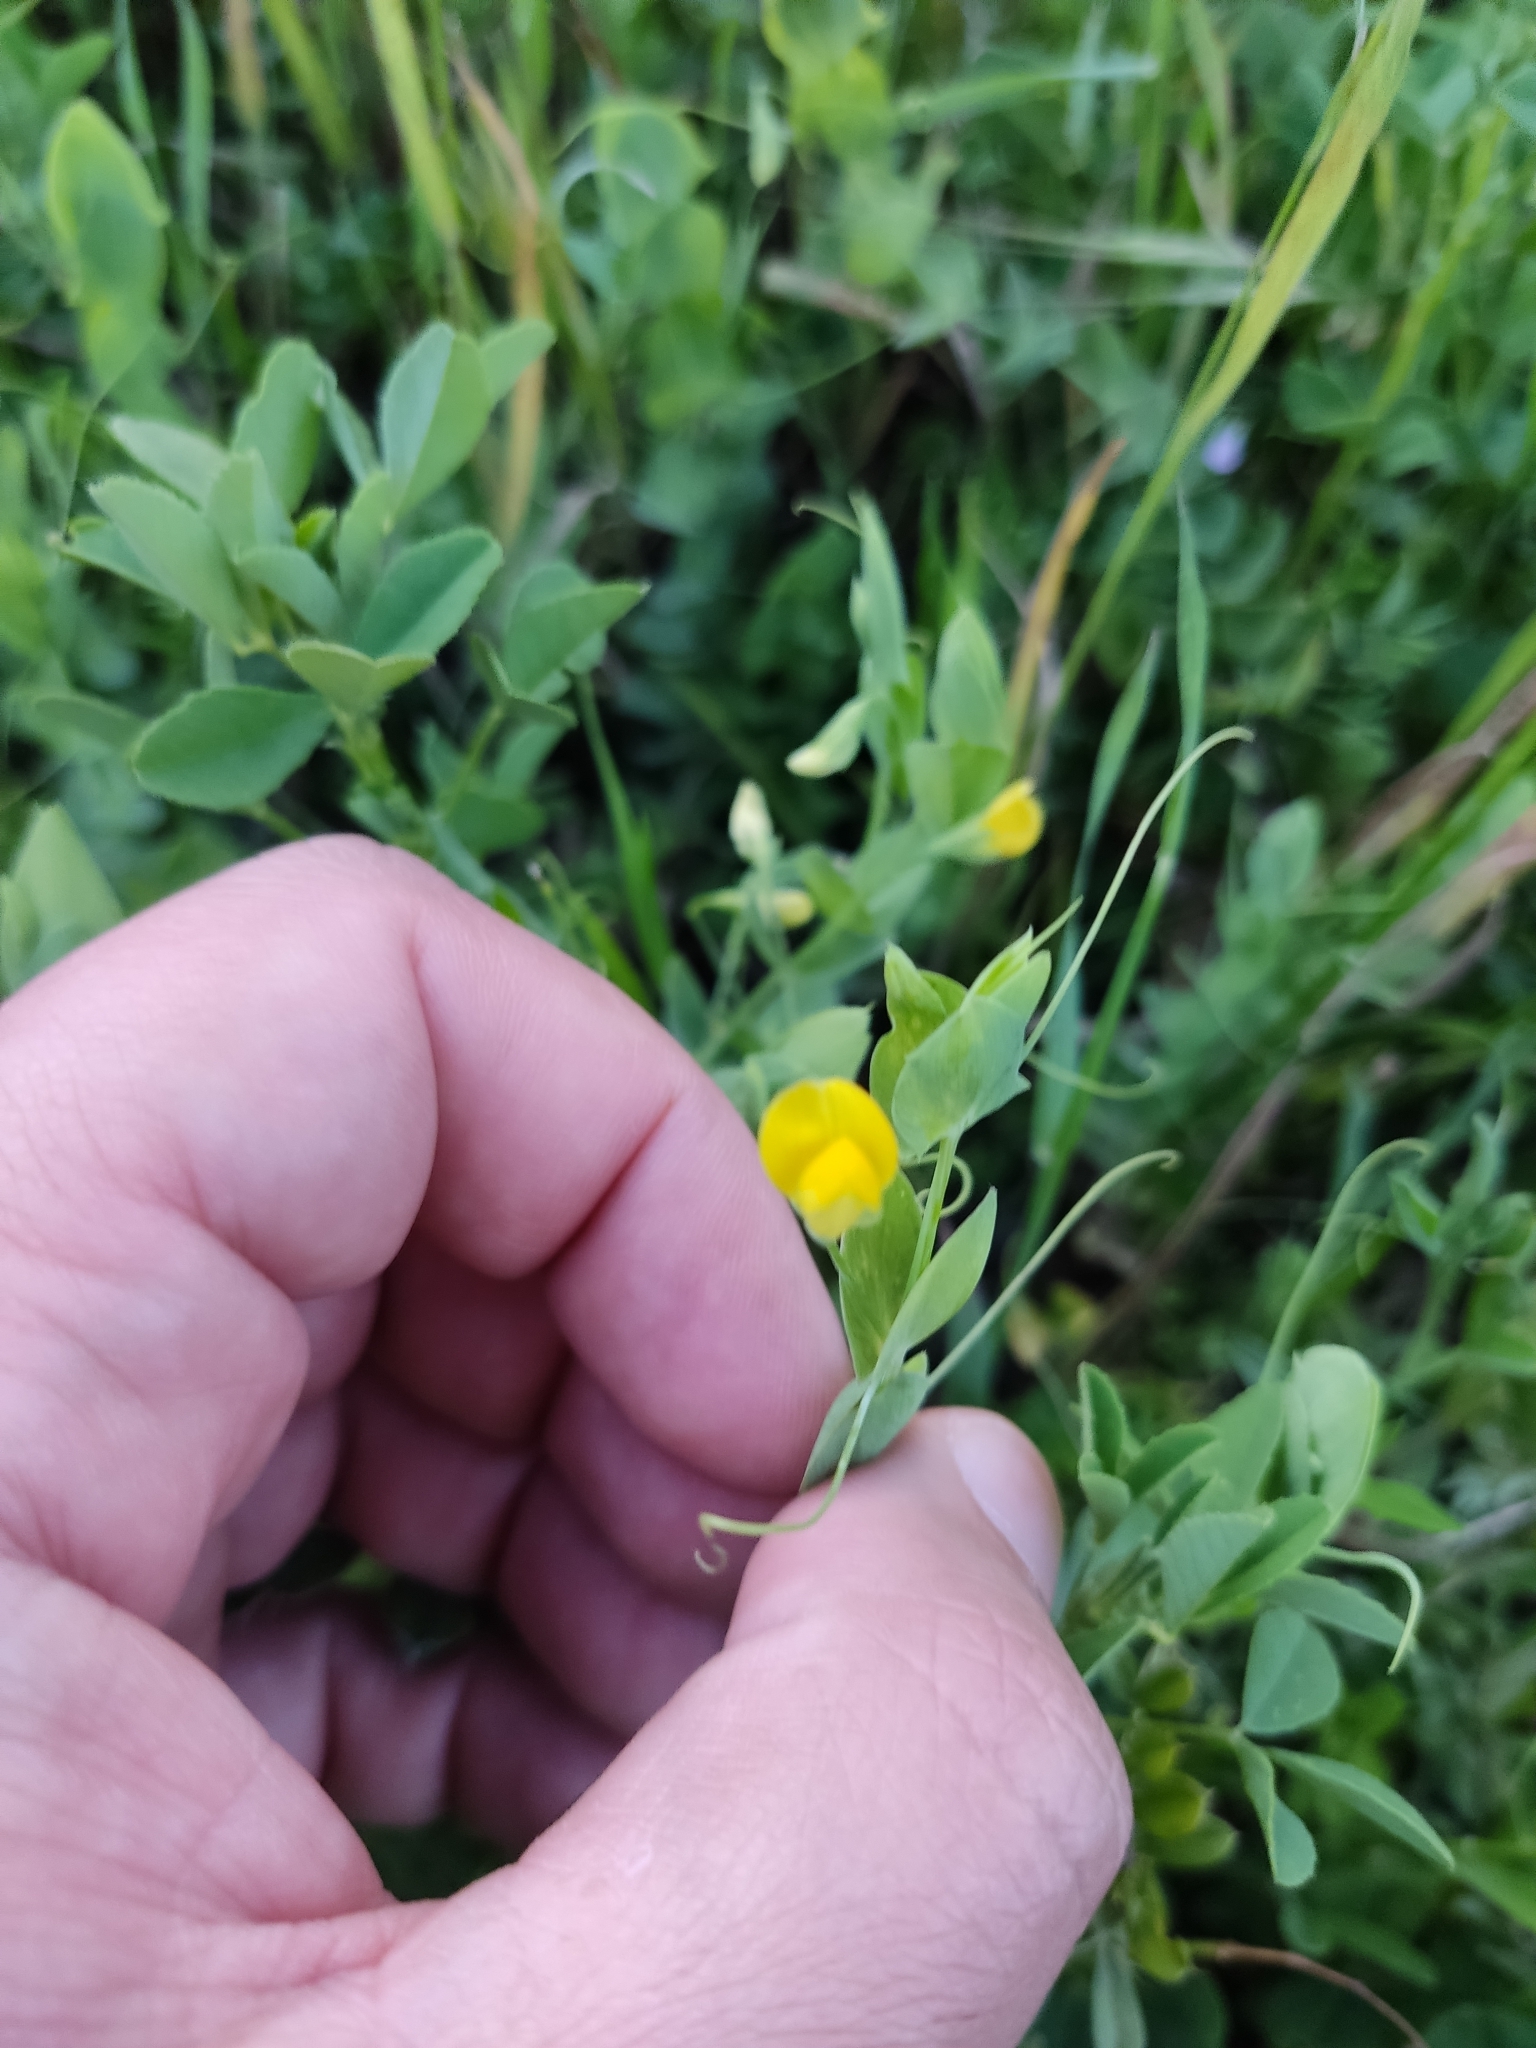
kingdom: Plantae
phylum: Tracheophyta
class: Magnoliopsida
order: Fabales
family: Fabaceae
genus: Lathyrus
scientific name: Lathyrus aphaca
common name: Yellow vetchling
